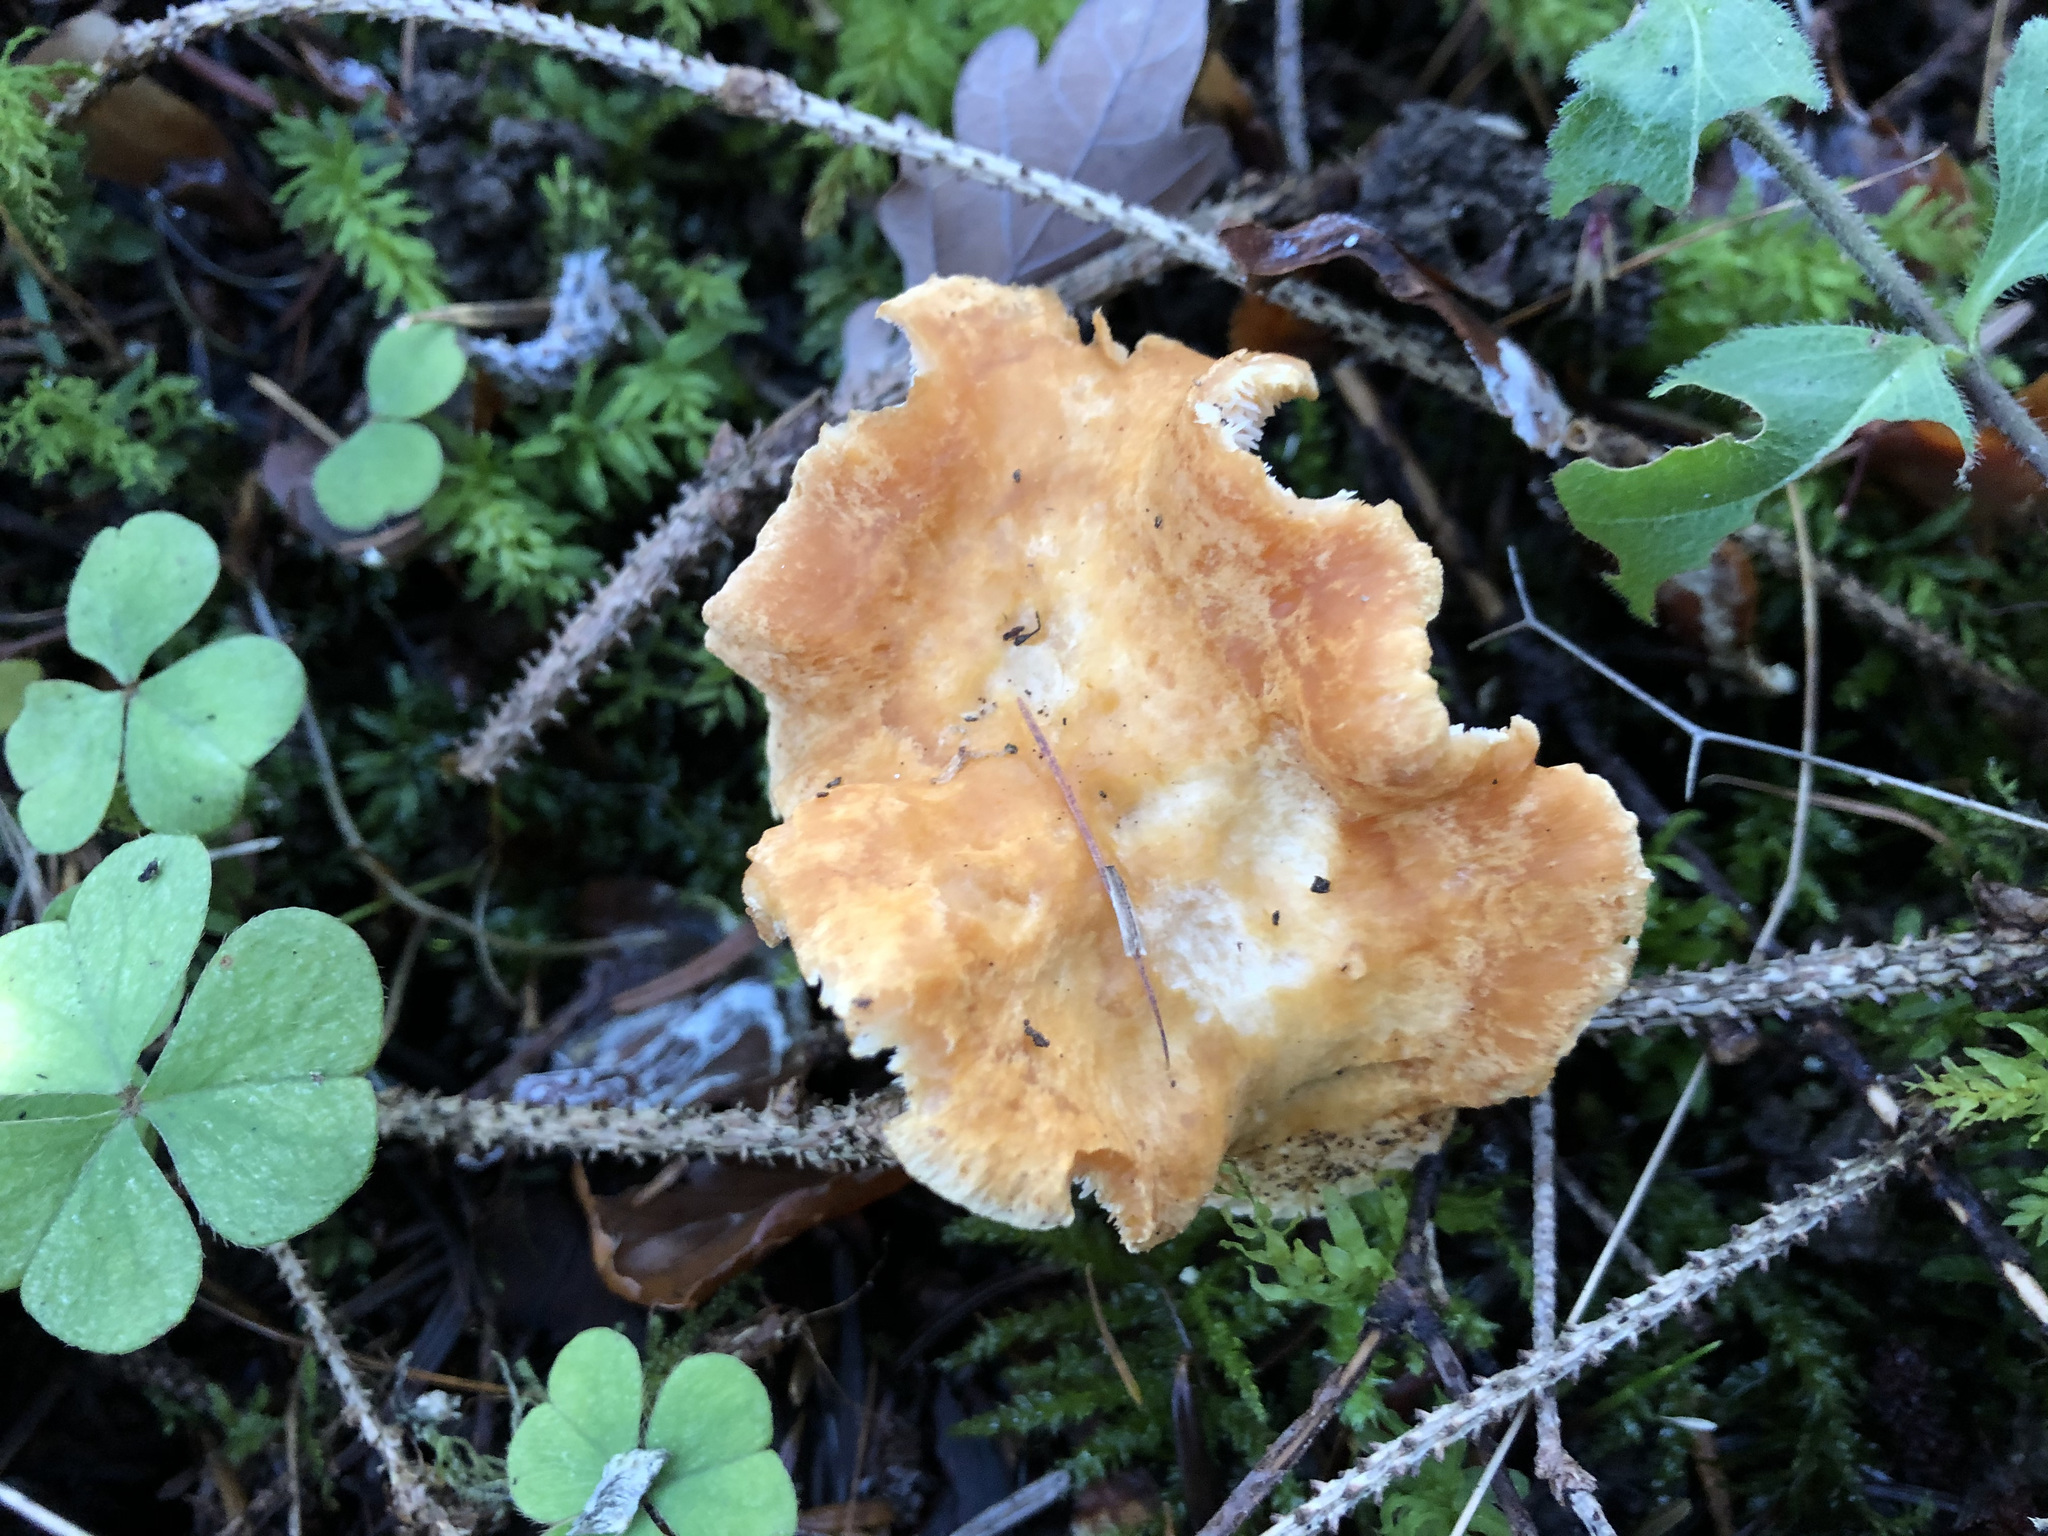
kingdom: Fungi
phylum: Basidiomycota
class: Agaricomycetes
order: Cantharellales
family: Hydnaceae
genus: Hydnum
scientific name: Hydnum repandum
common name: Wood hedgehog
